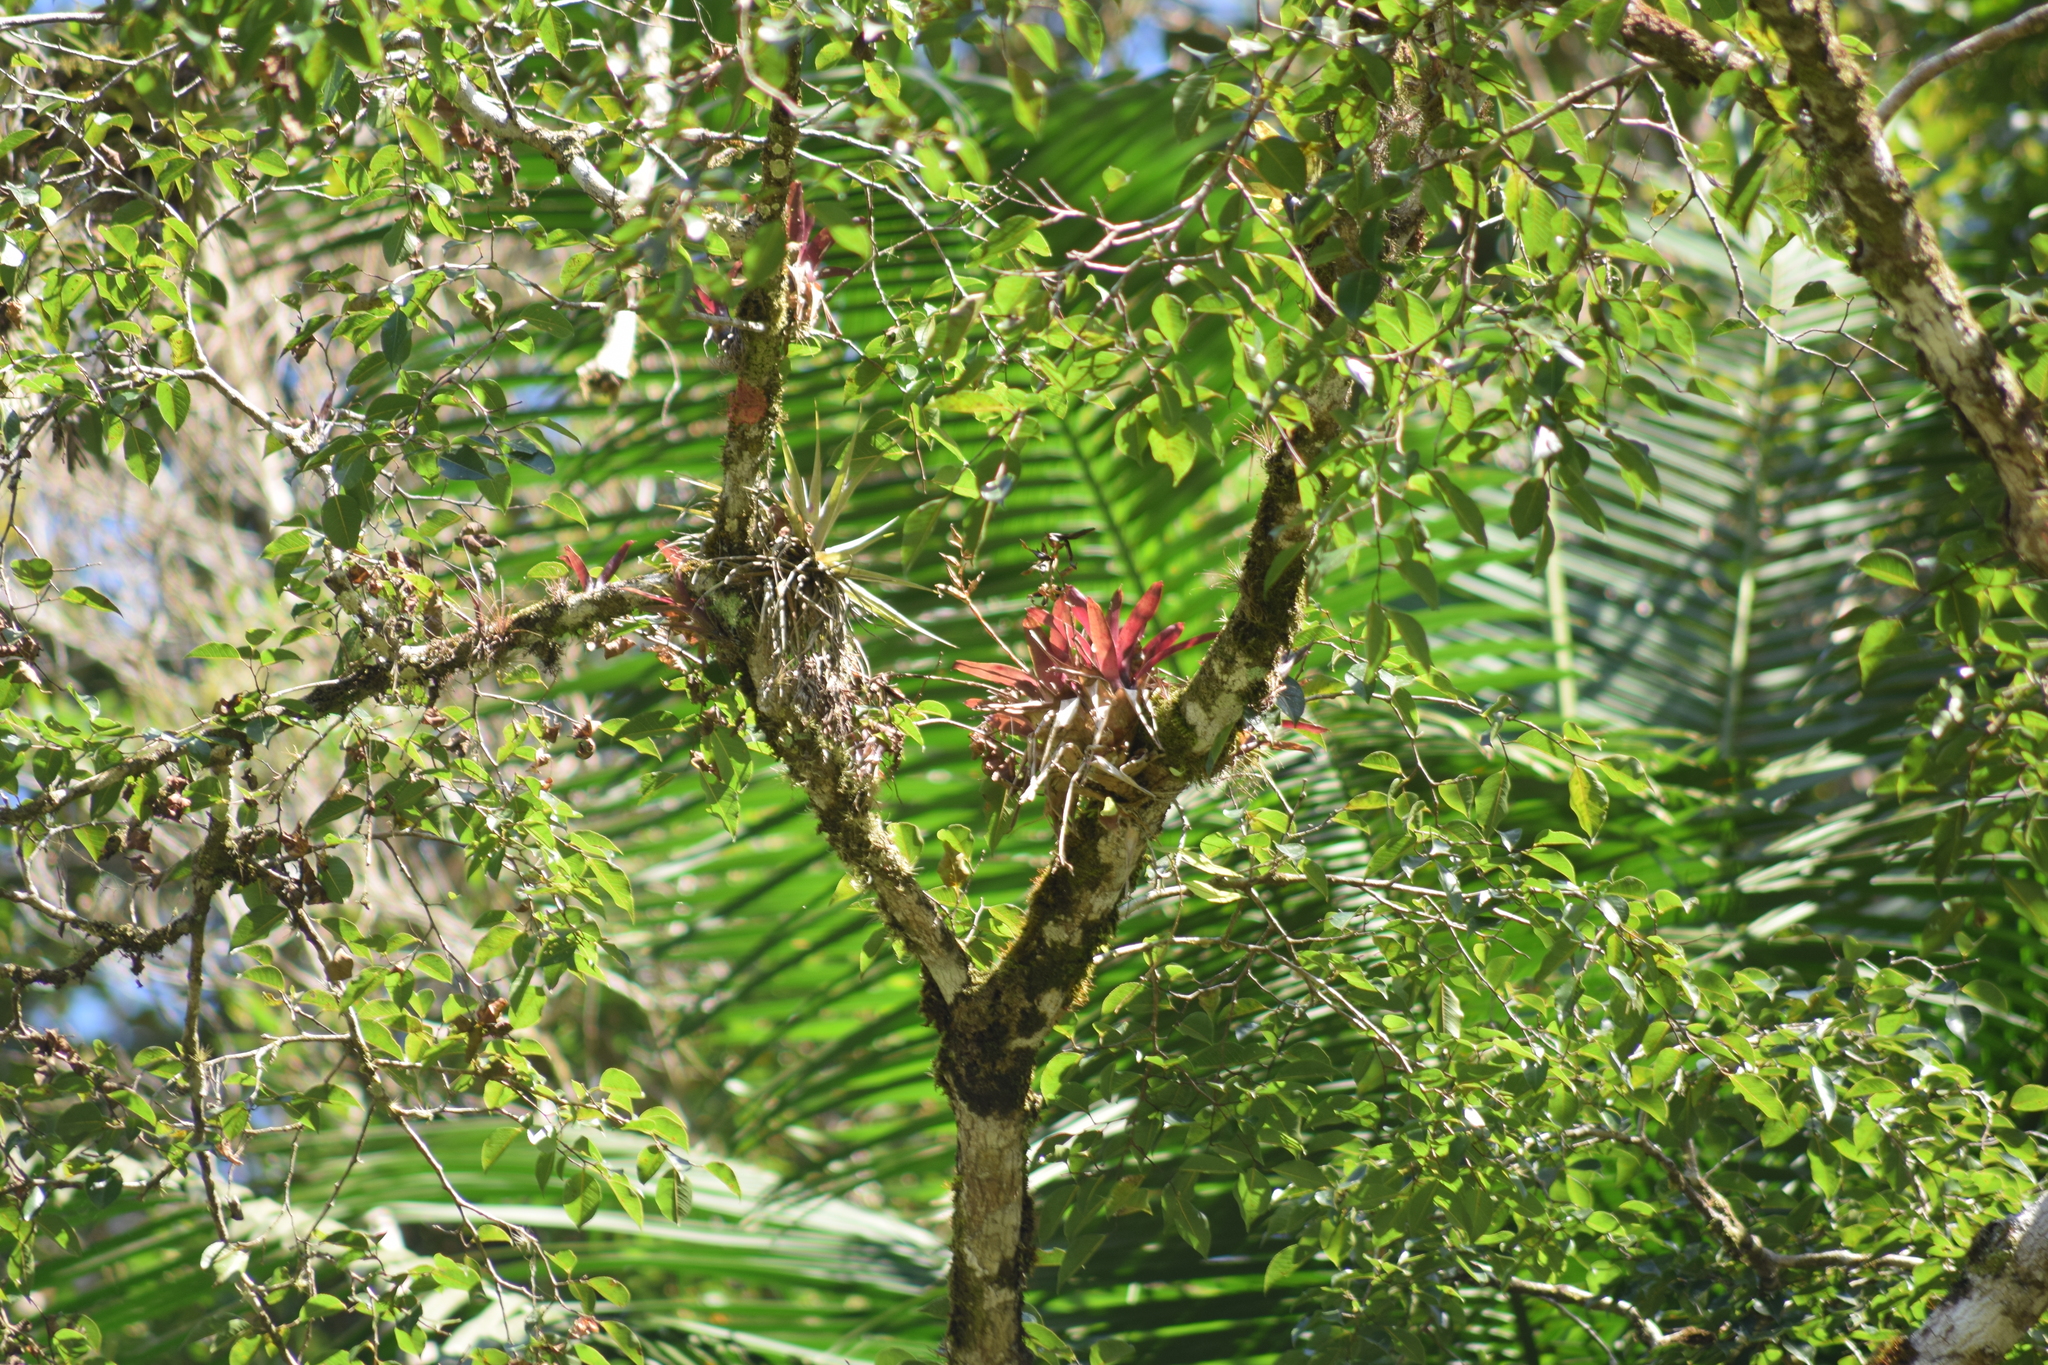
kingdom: Plantae
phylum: Tracheophyta
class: Liliopsida
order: Poales
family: Bromeliaceae
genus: Vriesea
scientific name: Vriesea rodigasiana
